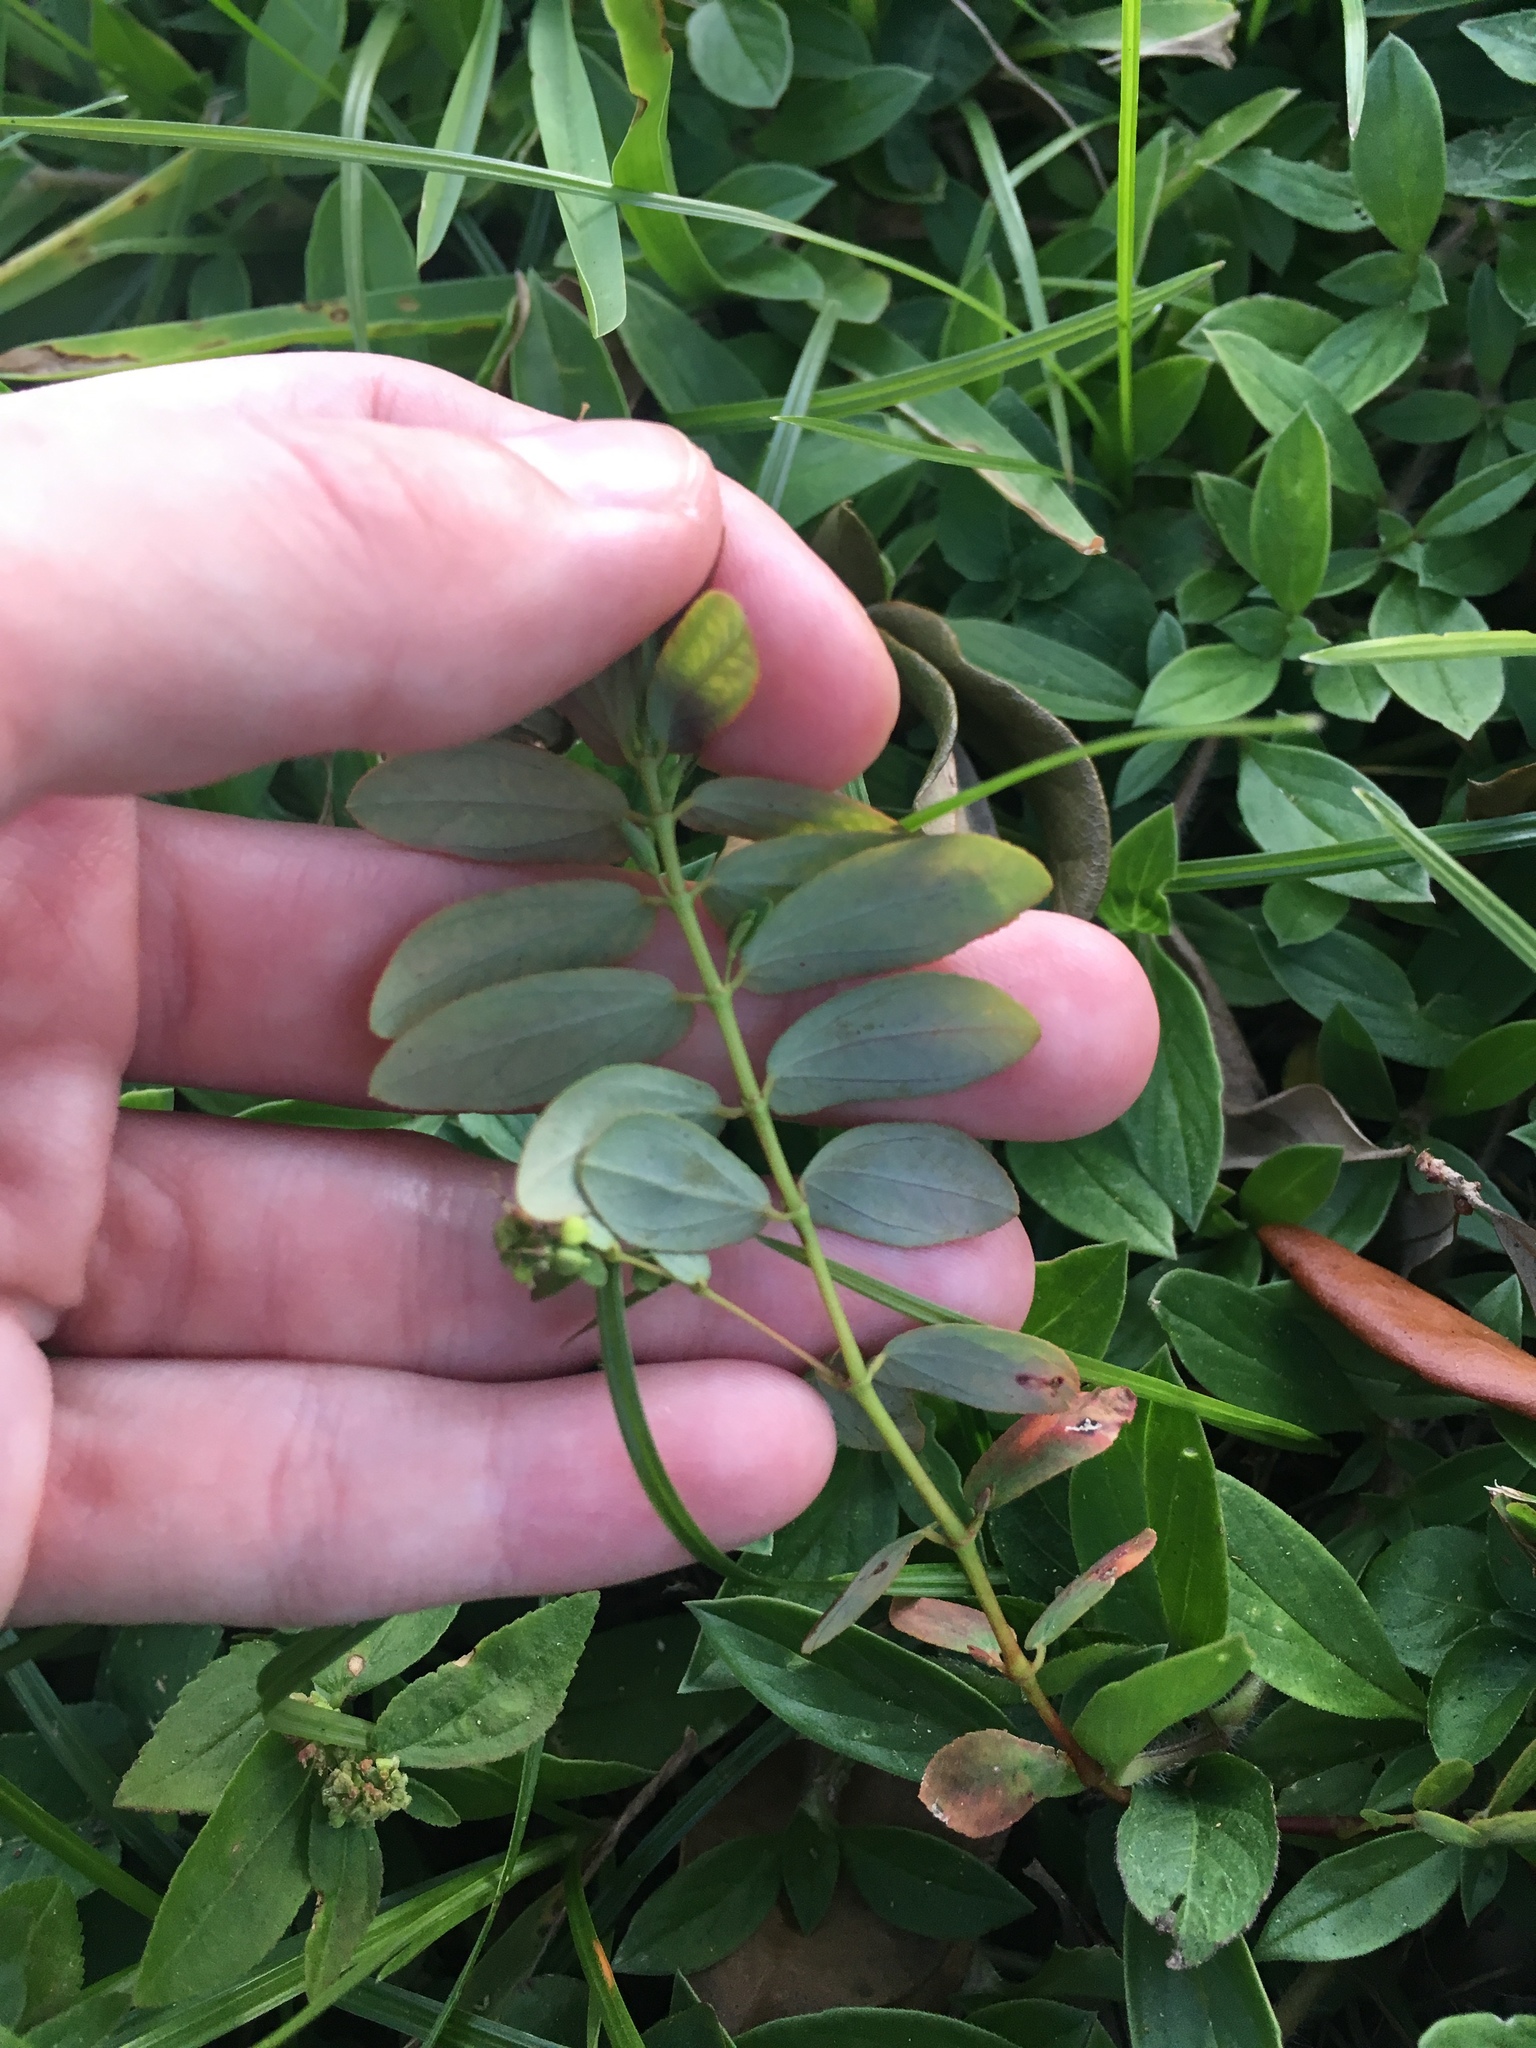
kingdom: Plantae
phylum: Tracheophyta
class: Magnoliopsida
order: Malpighiales
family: Euphorbiaceae
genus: Euphorbia
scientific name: Euphorbia hyssopifolia
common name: Hyssopleaf sandmat
